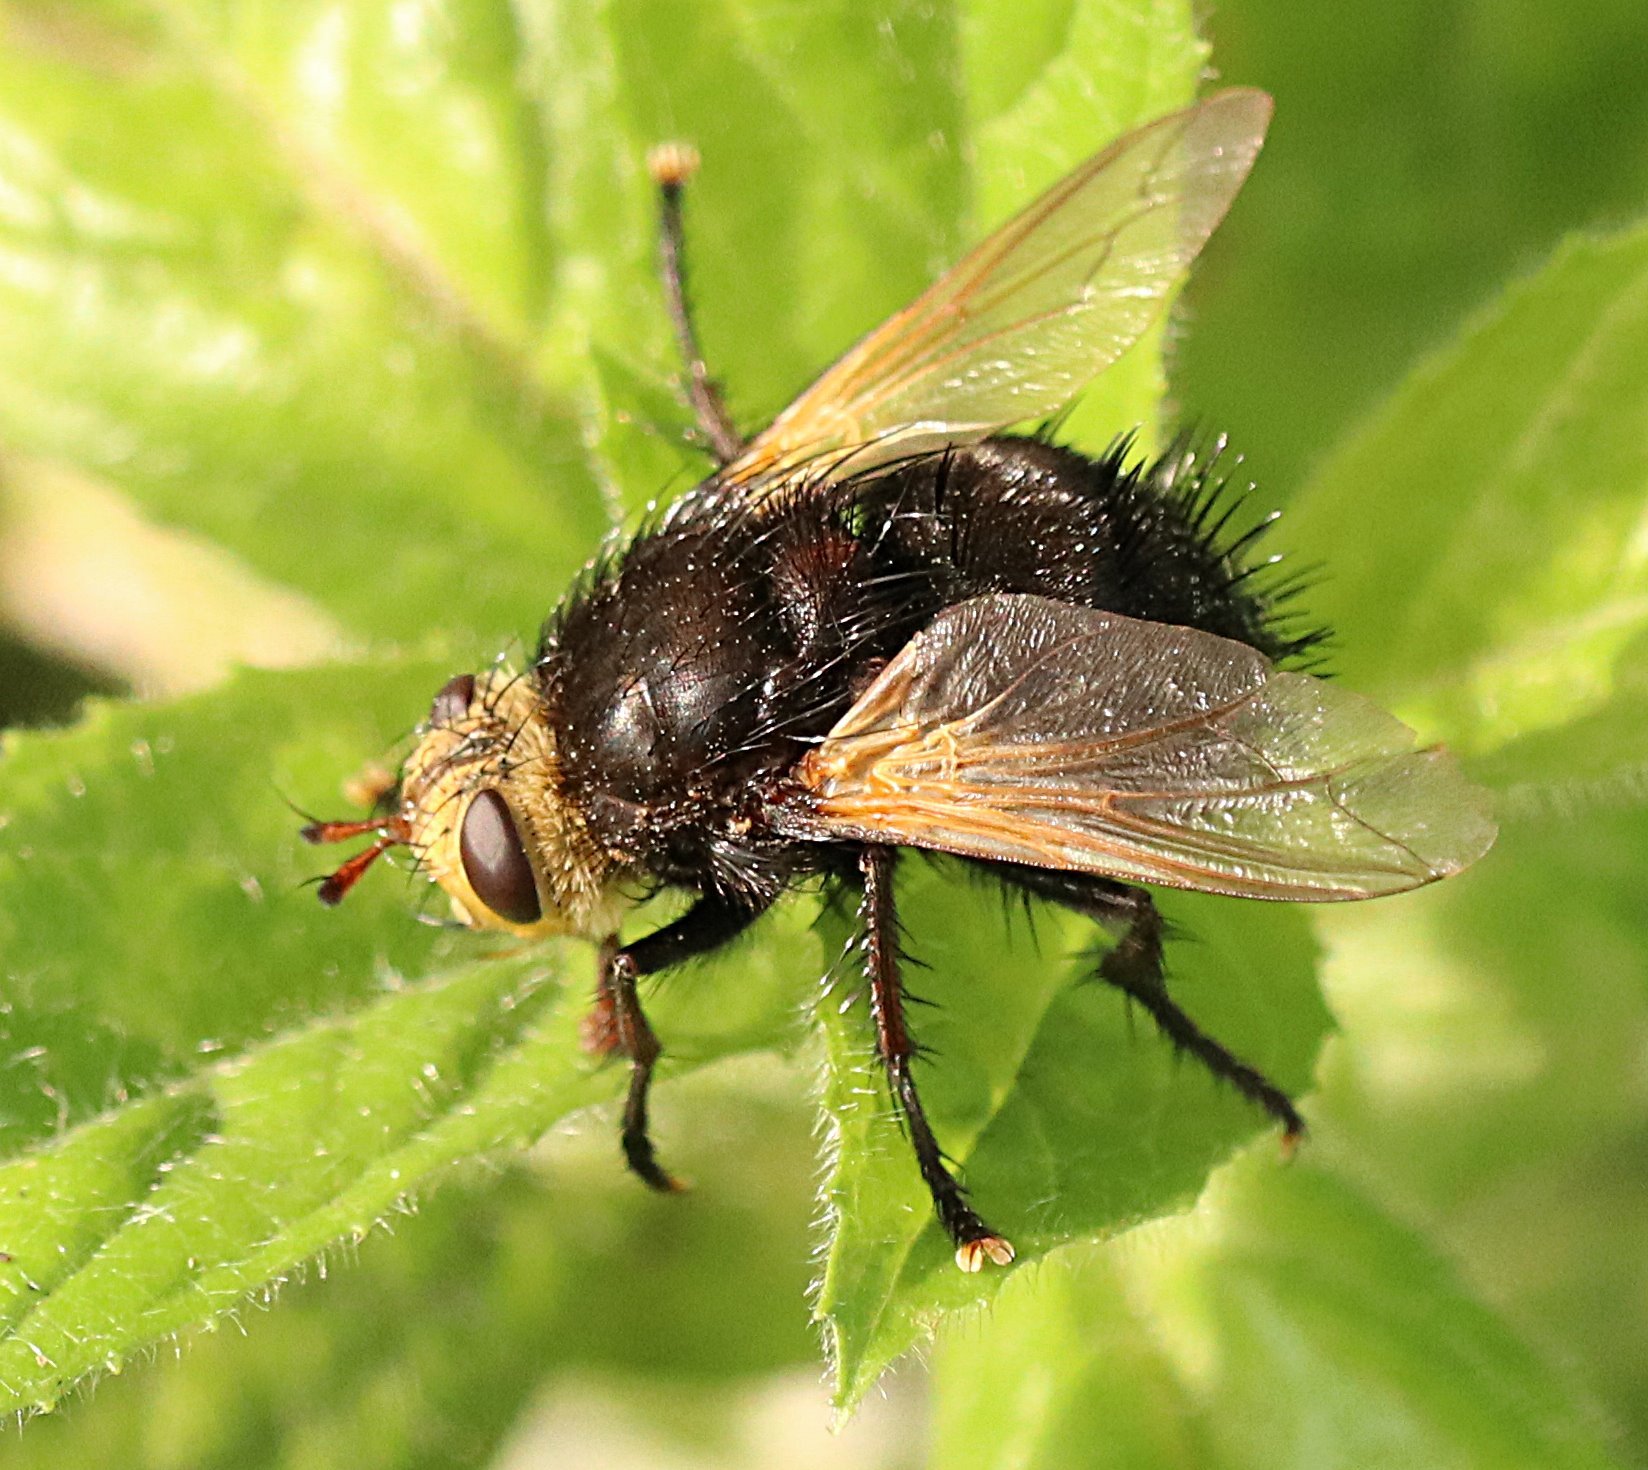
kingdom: Animalia
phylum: Arthropoda
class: Insecta
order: Diptera
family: Tachinidae
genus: Tachina
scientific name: Tachina grossa
